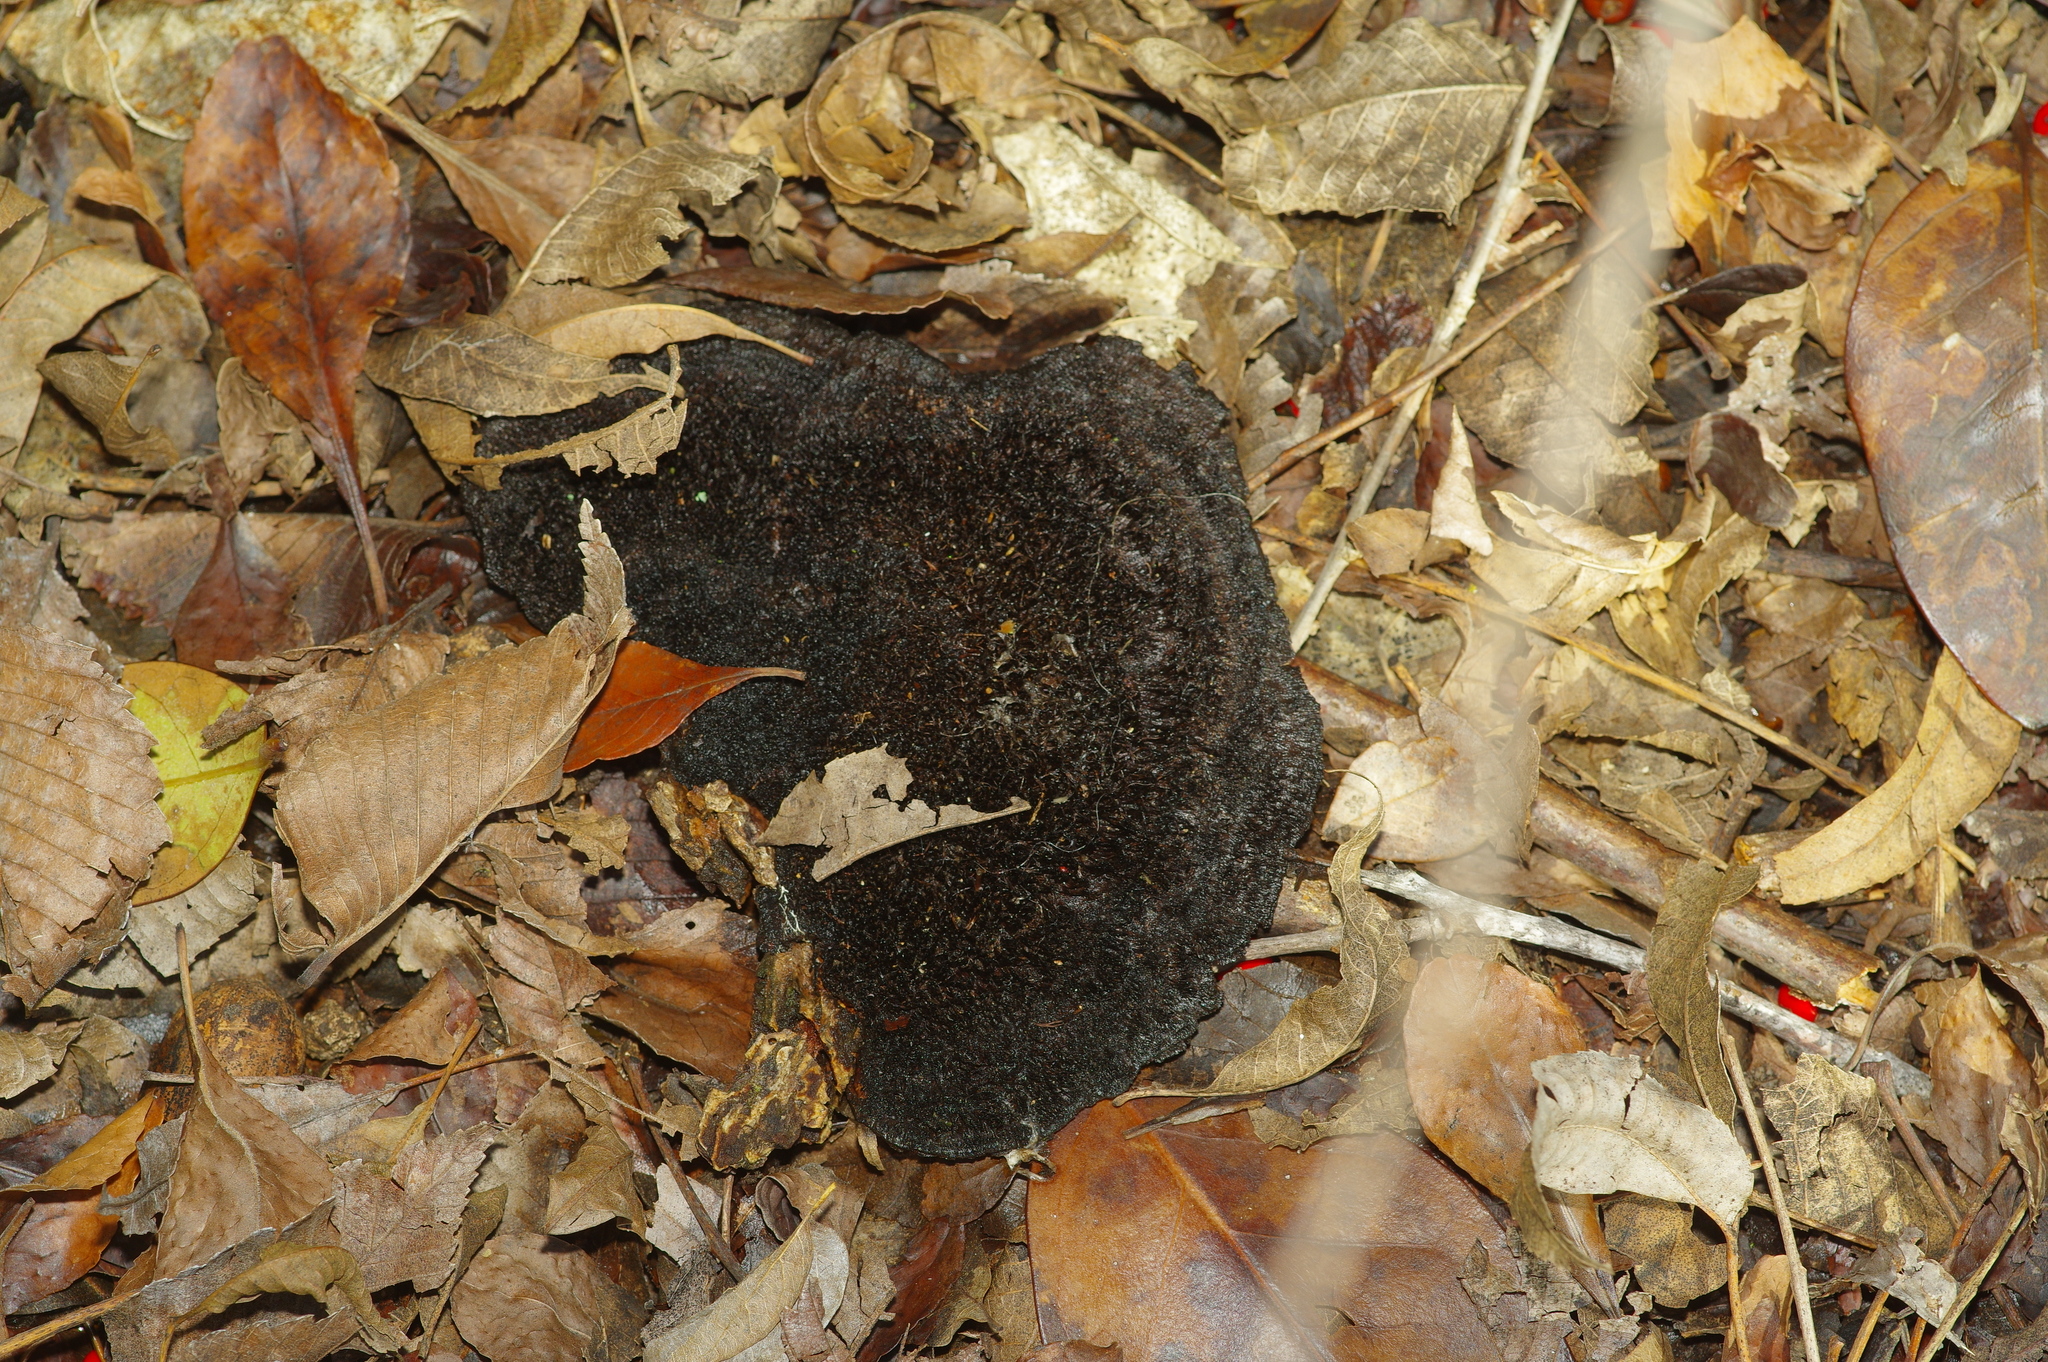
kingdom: Fungi
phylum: Basidiomycota
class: Agaricomycetes
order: Polyporales
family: Cerrenaceae
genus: Cerrena
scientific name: Cerrena hydnoides
